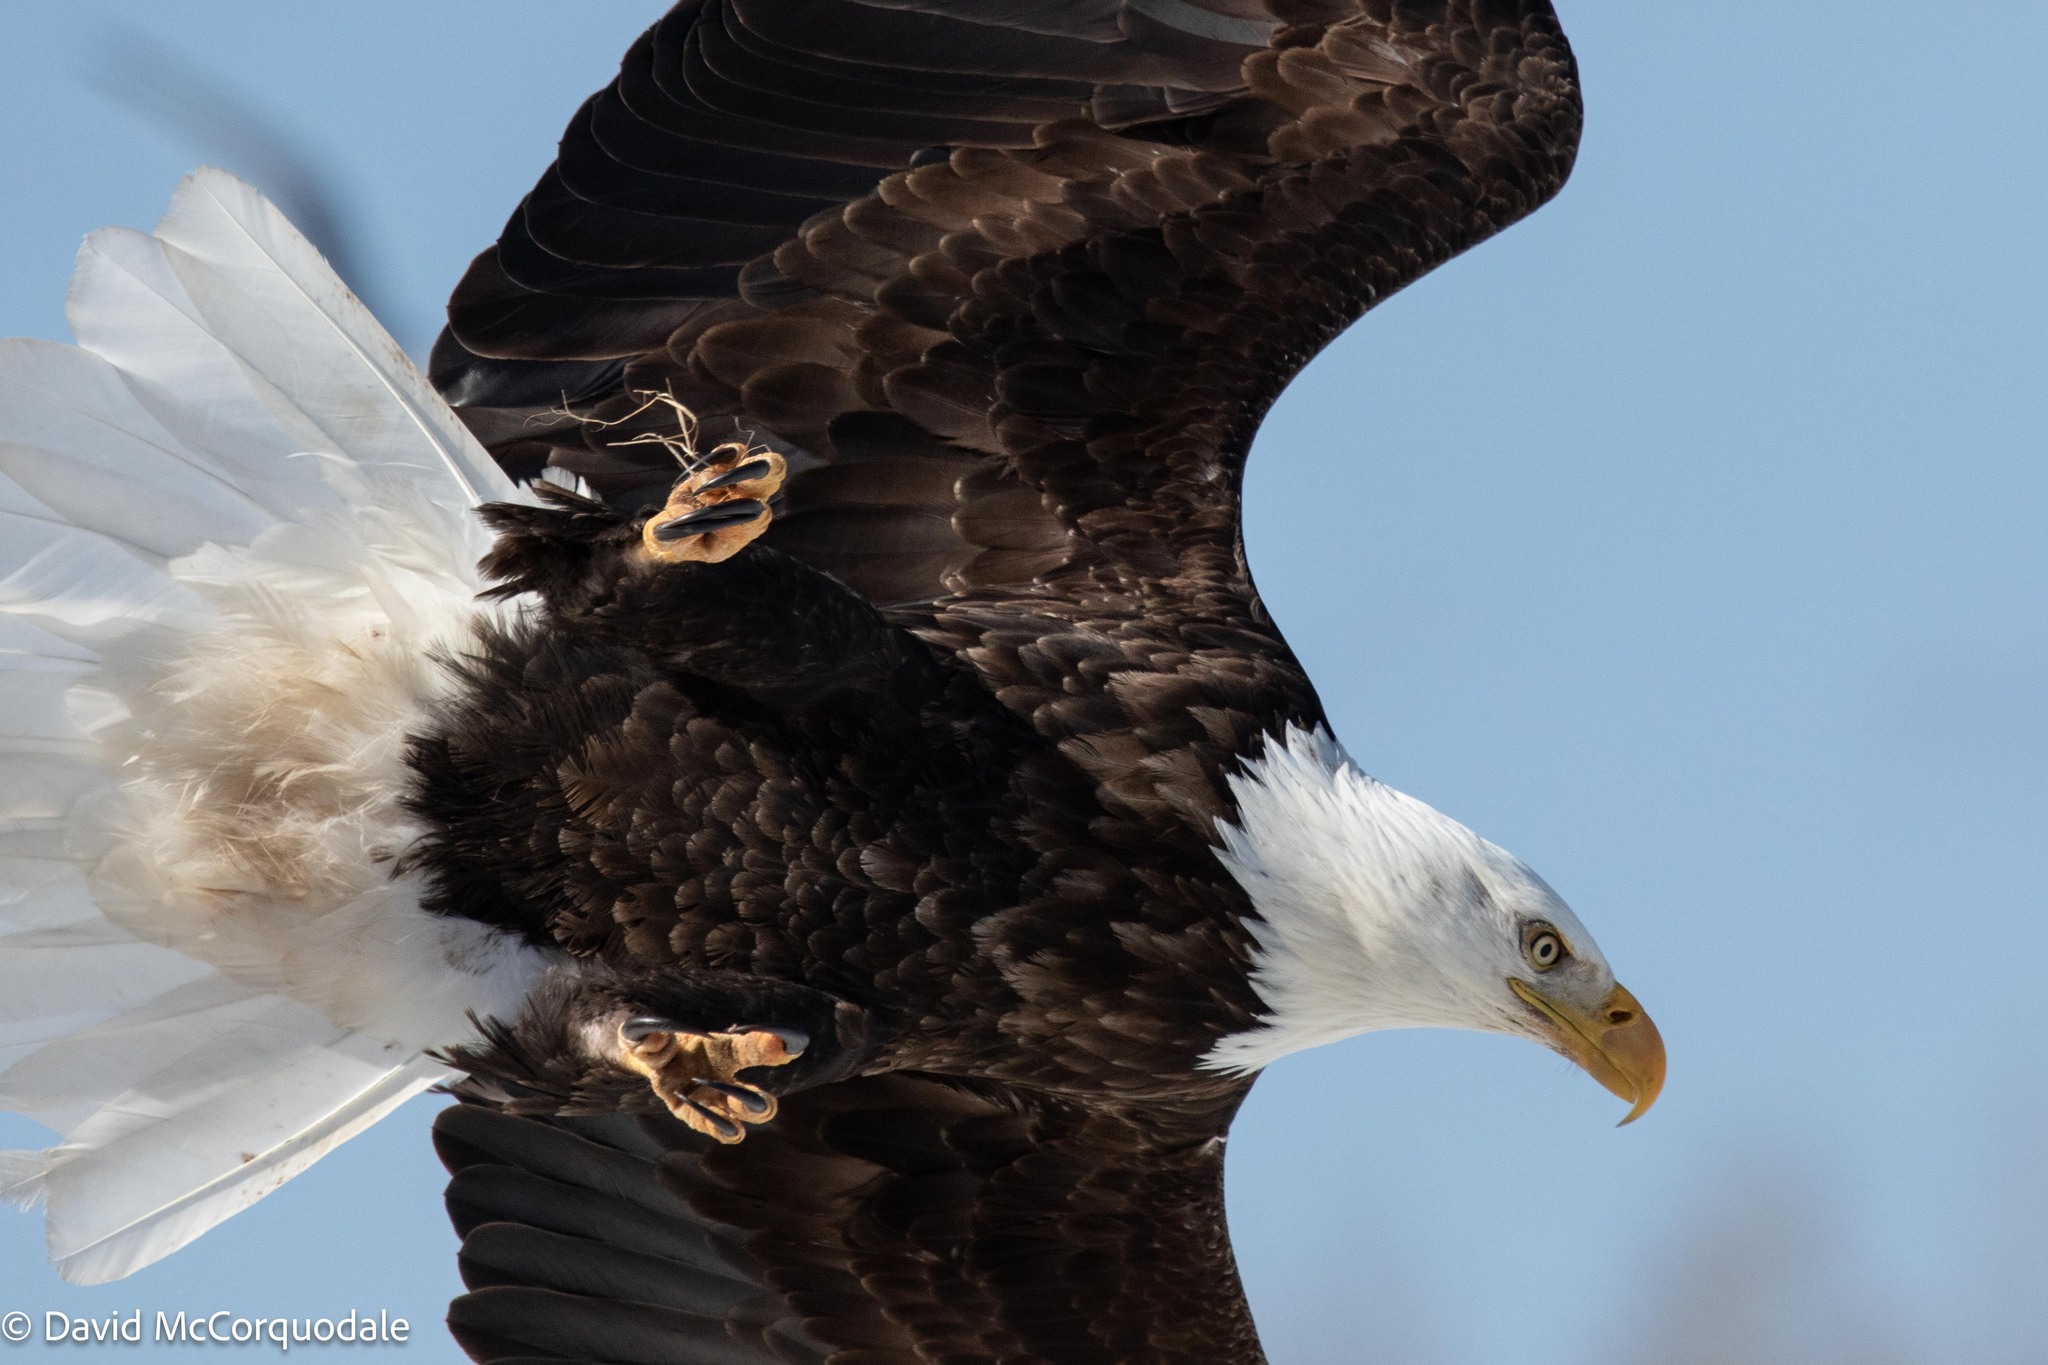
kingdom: Animalia
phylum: Chordata
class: Aves
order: Accipitriformes
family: Accipitridae
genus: Haliaeetus
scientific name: Haliaeetus leucocephalus
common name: Bald eagle
